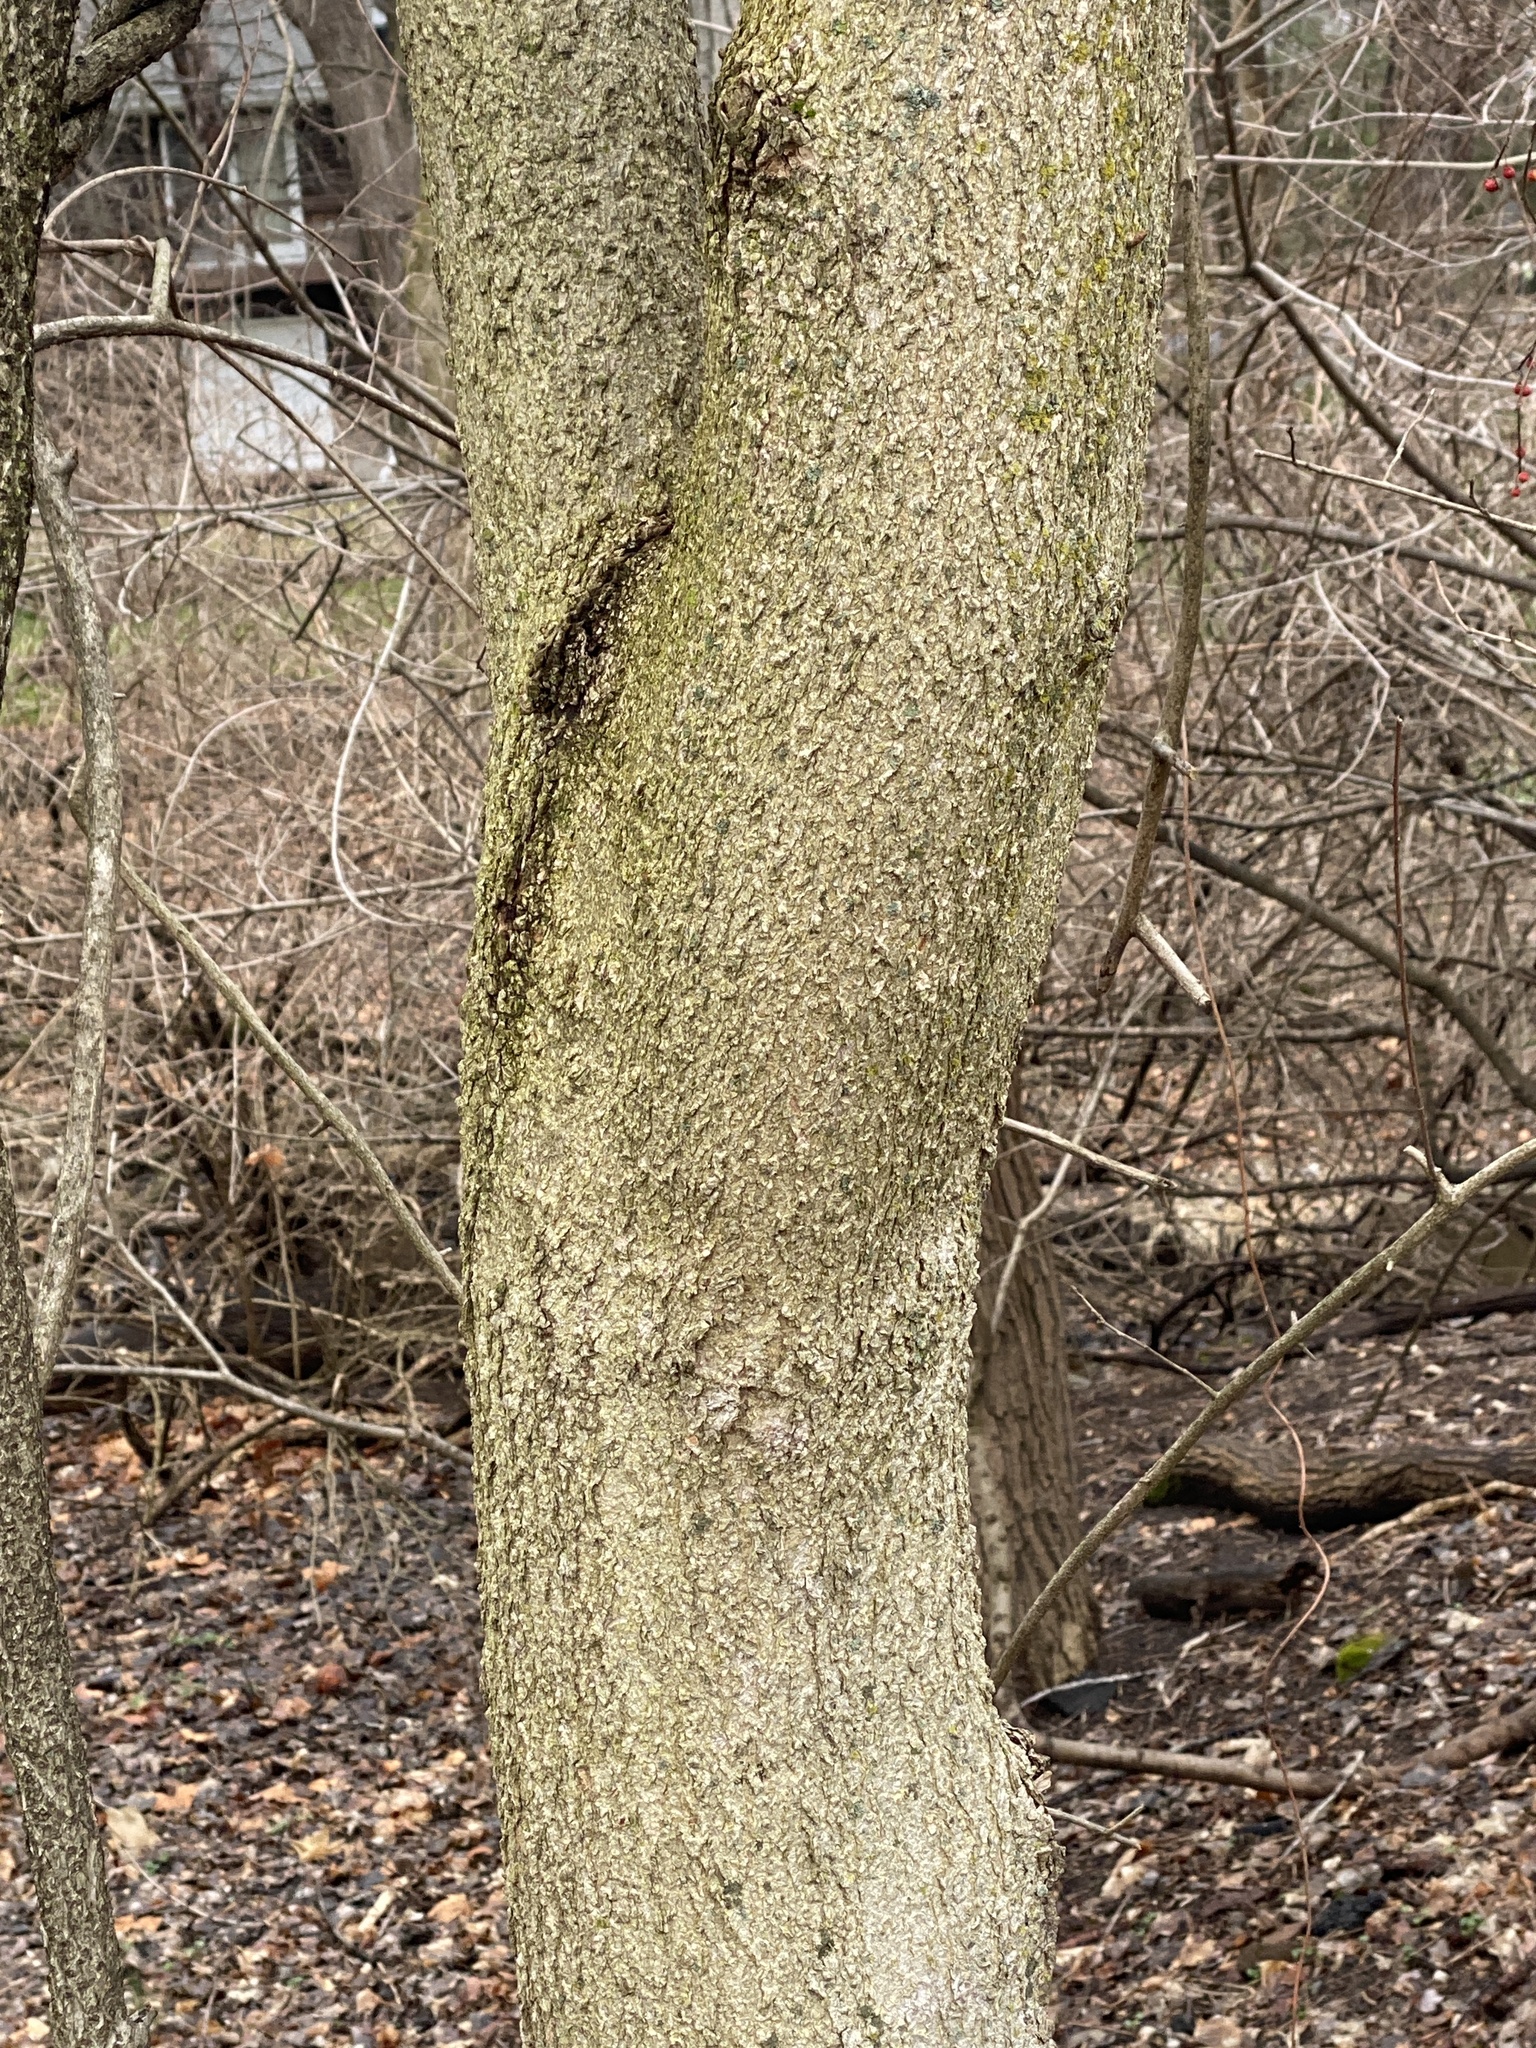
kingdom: Plantae
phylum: Tracheophyta
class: Magnoliopsida
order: Sapindales
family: Sapindaceae
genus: Aesculus
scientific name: Aesculus flava
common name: Yellow buckeye
